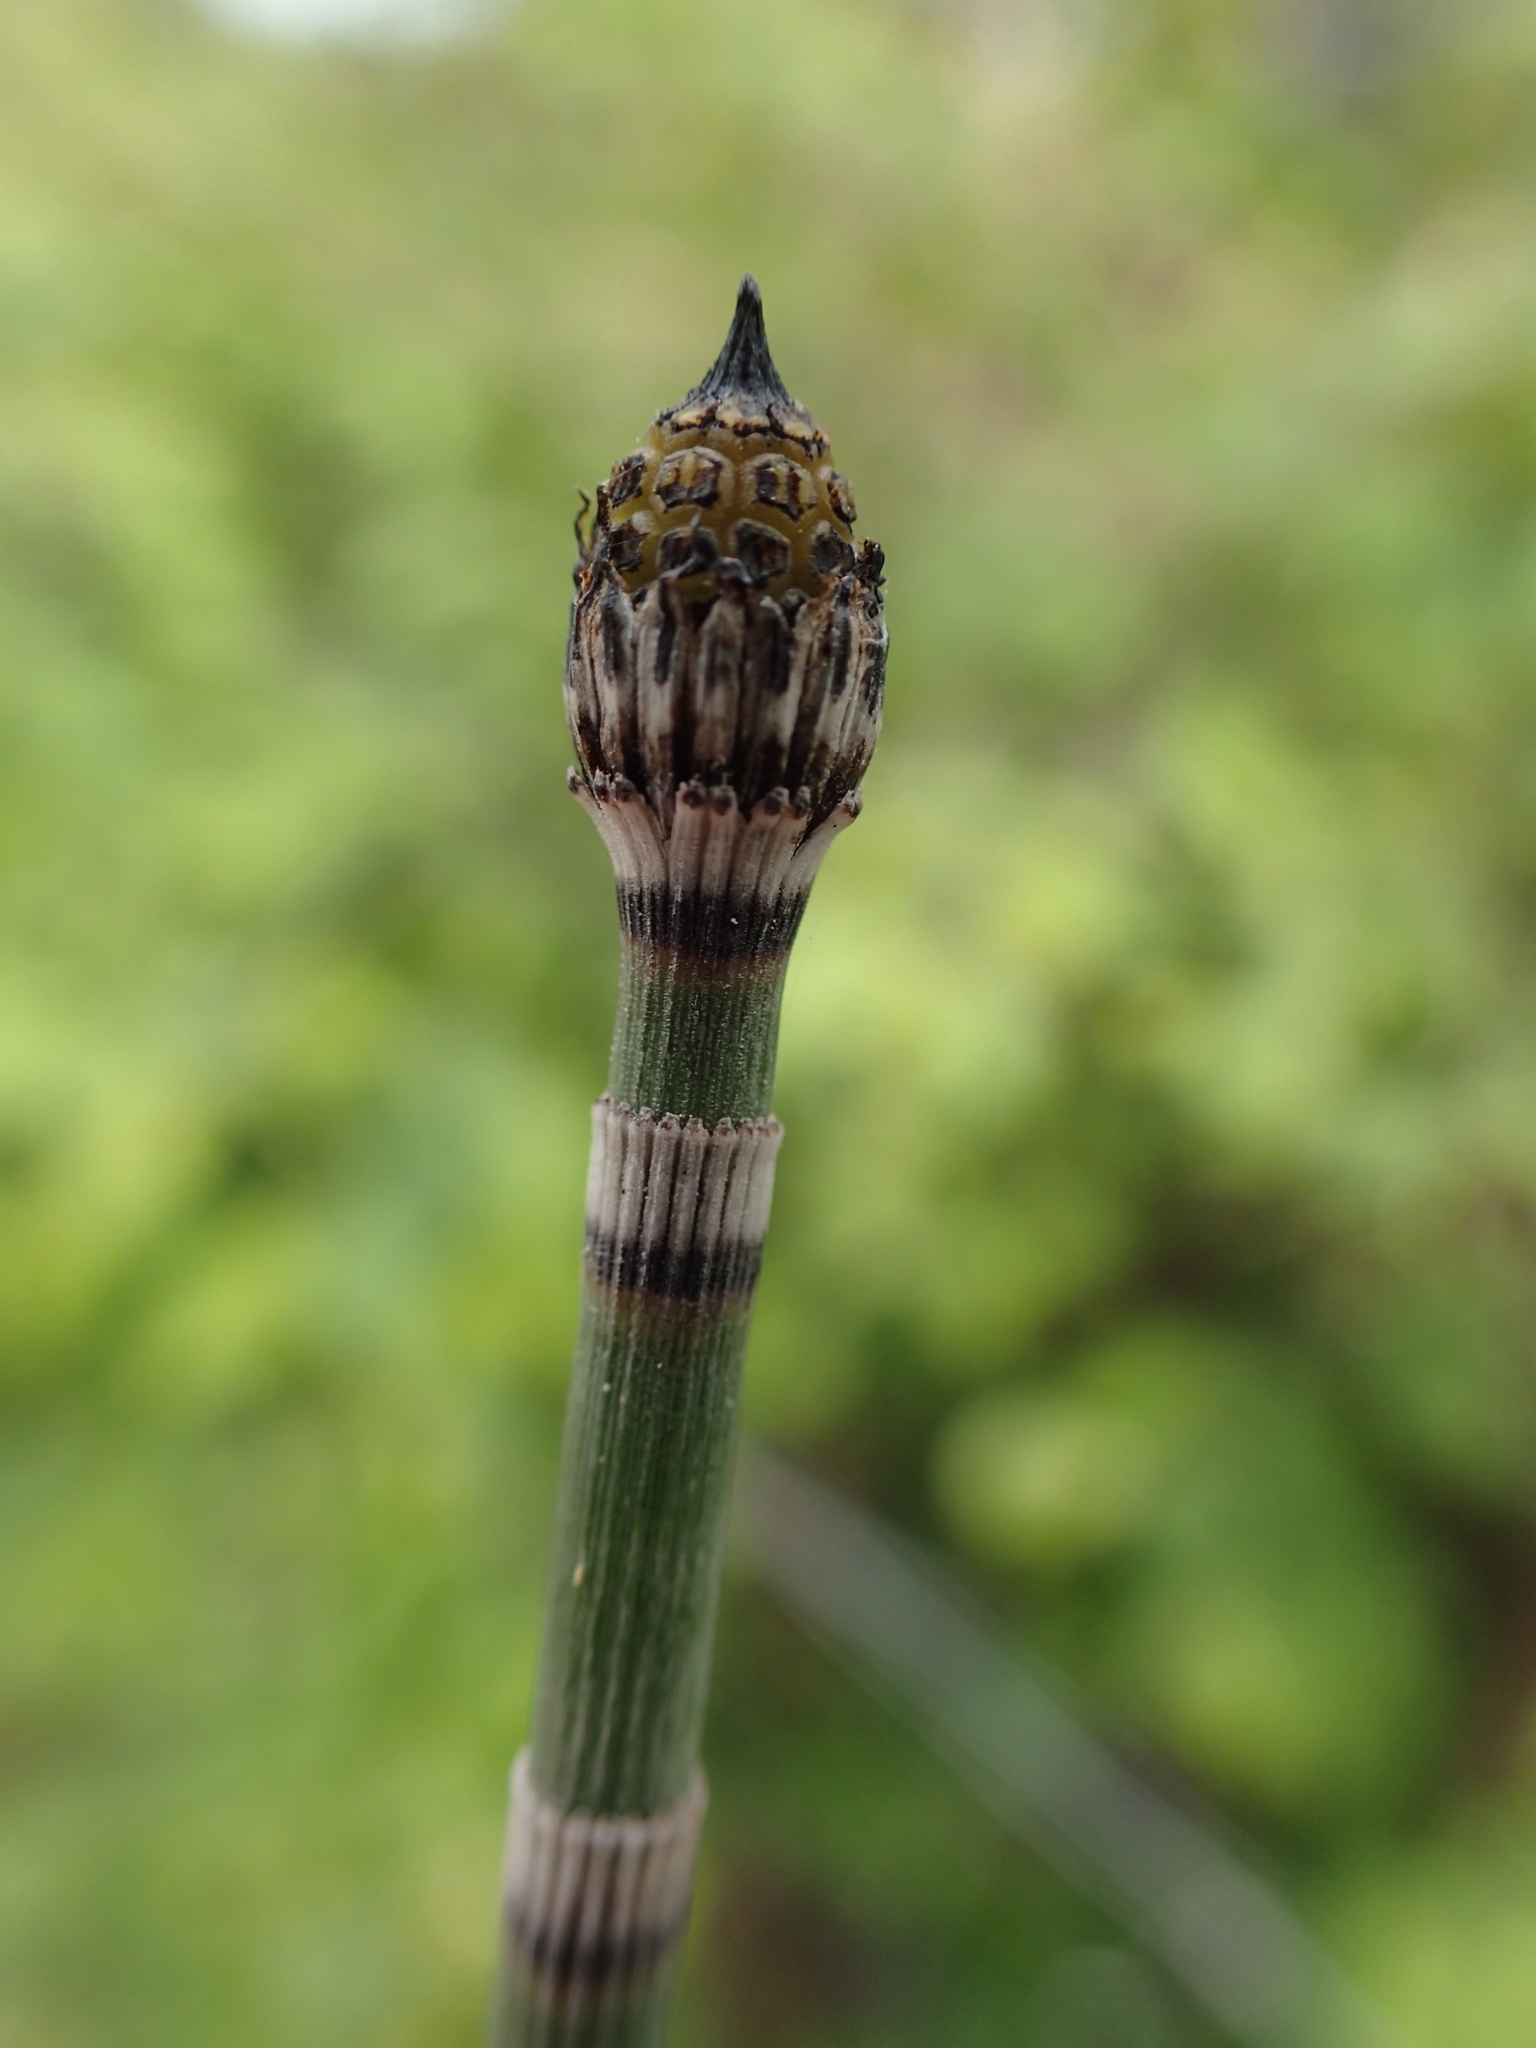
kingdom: Plantae
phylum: Tracheophyta
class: Polypodiopsida
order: Equisetales
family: Equisetaceae
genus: Equisetum
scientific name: Equisetum hyemale
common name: Rough horsetail
